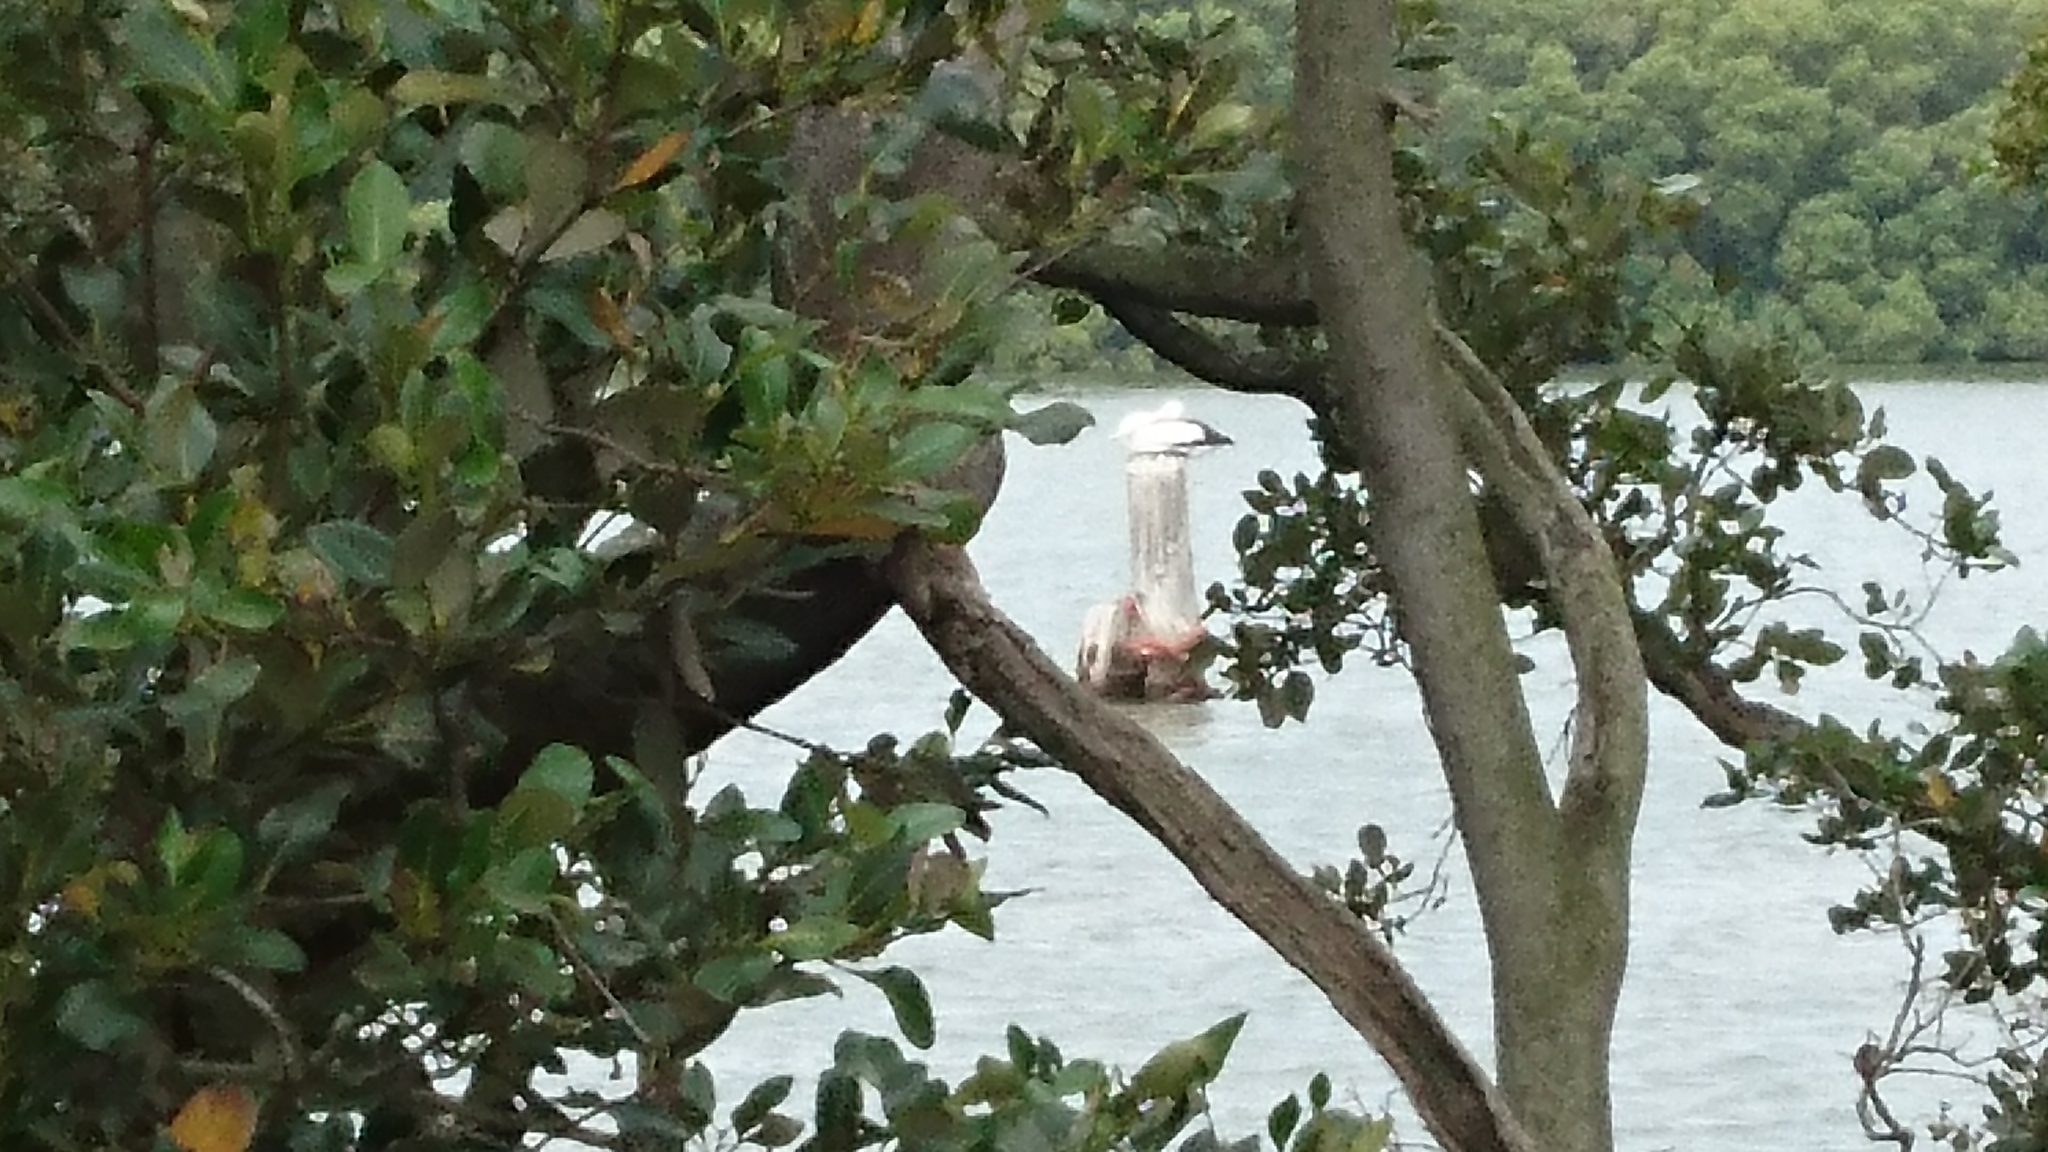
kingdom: Animalia
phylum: Chordata
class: Aves
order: Pelecaniformes
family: Pelecanidae
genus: Pelecanus
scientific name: Pelecanus conspicillatus
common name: Australian pelican
